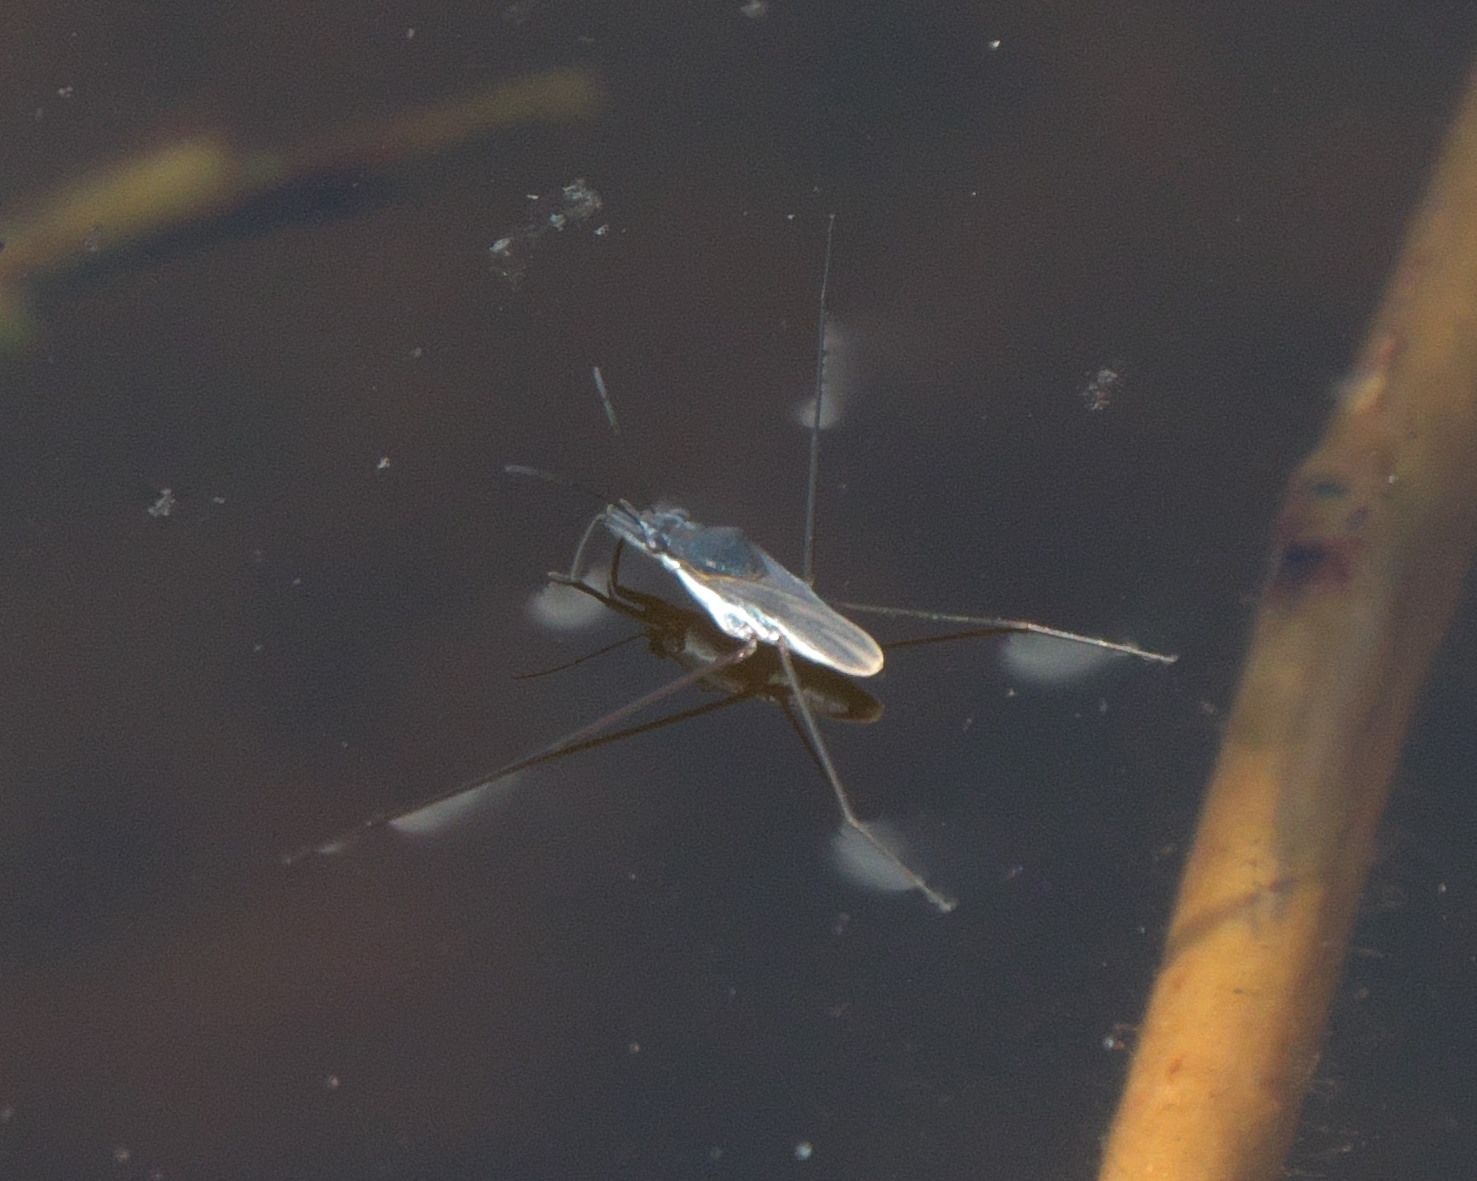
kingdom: Animalia
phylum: Arthropoda
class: Insecta
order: Hemiptera
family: Gerridae
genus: Neogerris
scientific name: Neogerris hesione
